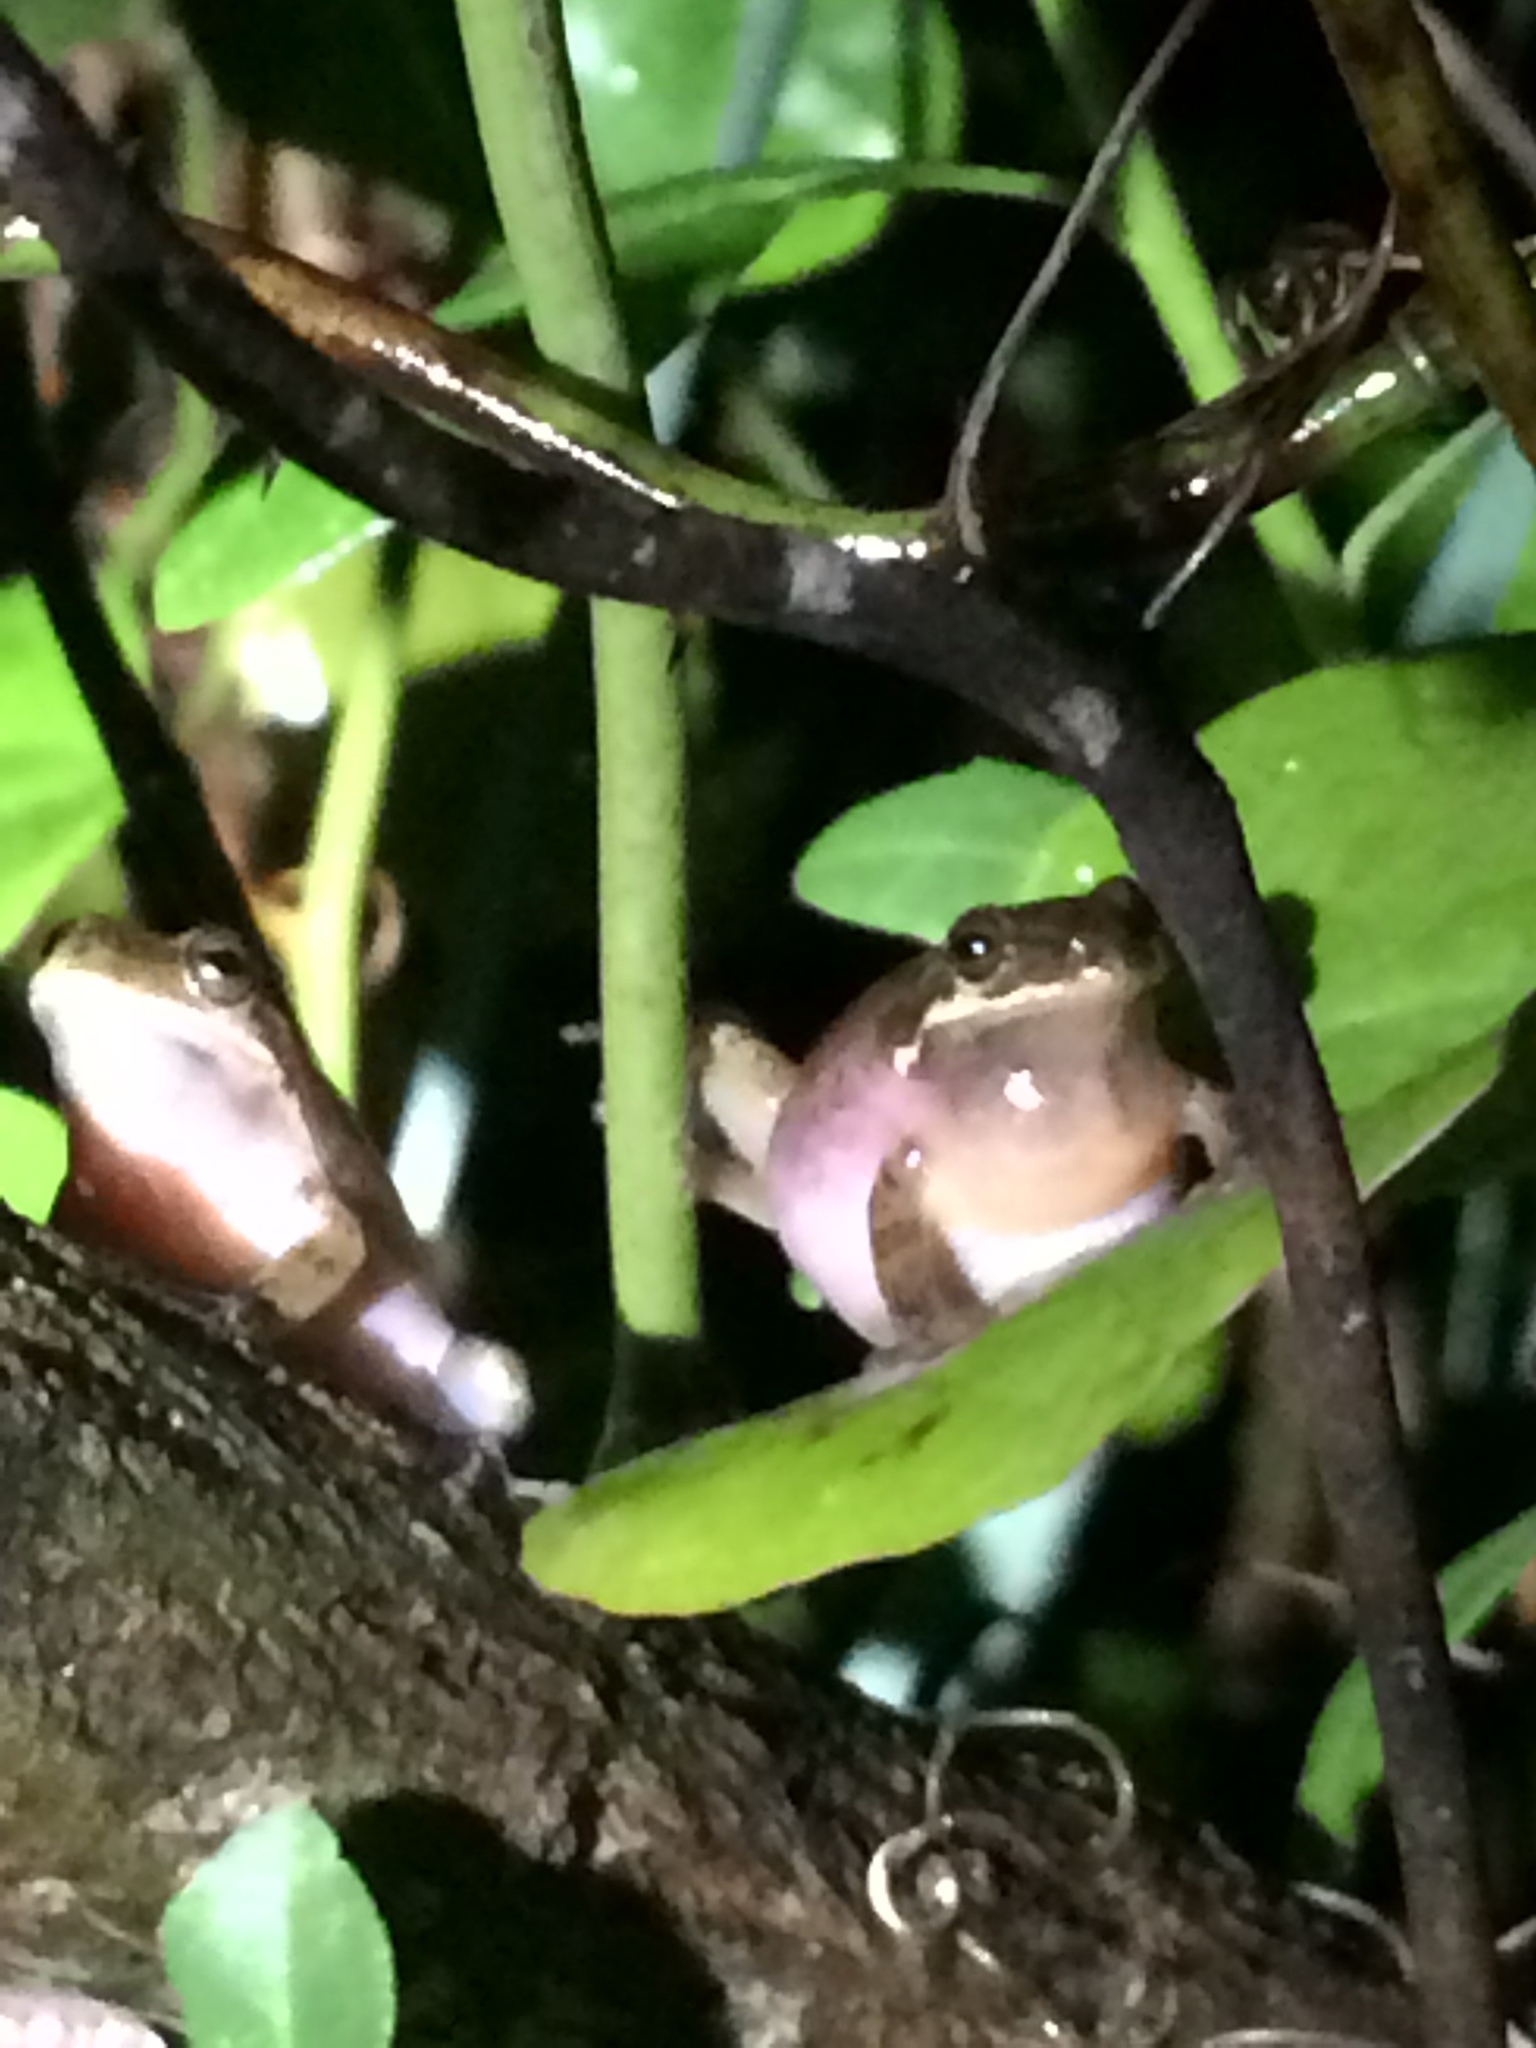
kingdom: Animalia
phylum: Chordata
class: Amphibia
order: Anura
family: Hylidae
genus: Dryophytes
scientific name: Dryophytes squirellus
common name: Squirrel treefrog
